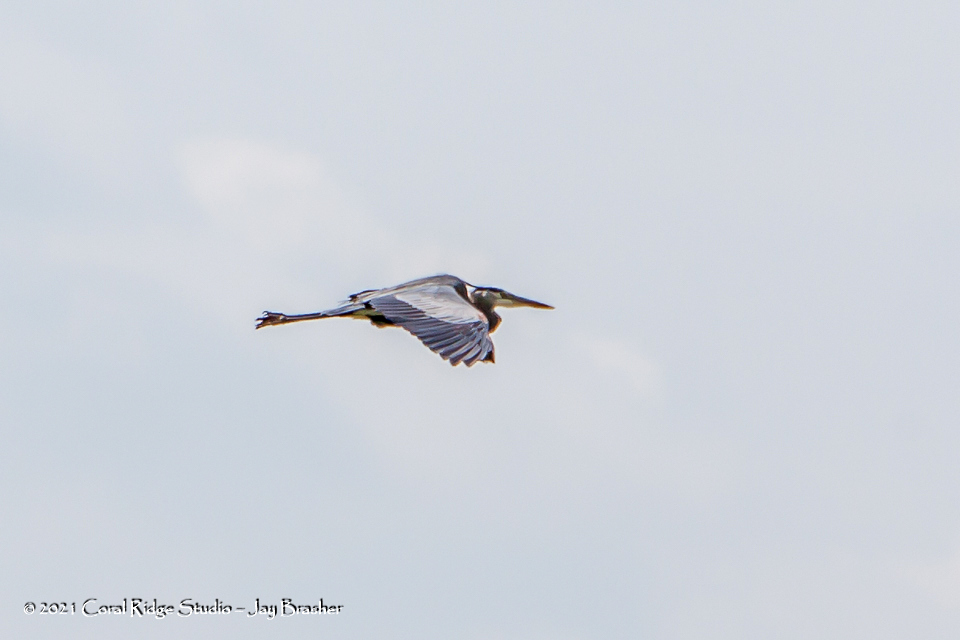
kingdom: Animalia
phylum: Chordata
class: Aves
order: Pelecaniformes
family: Ardeidae
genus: Ardea
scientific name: Ardea herodias
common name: Great blue heron
